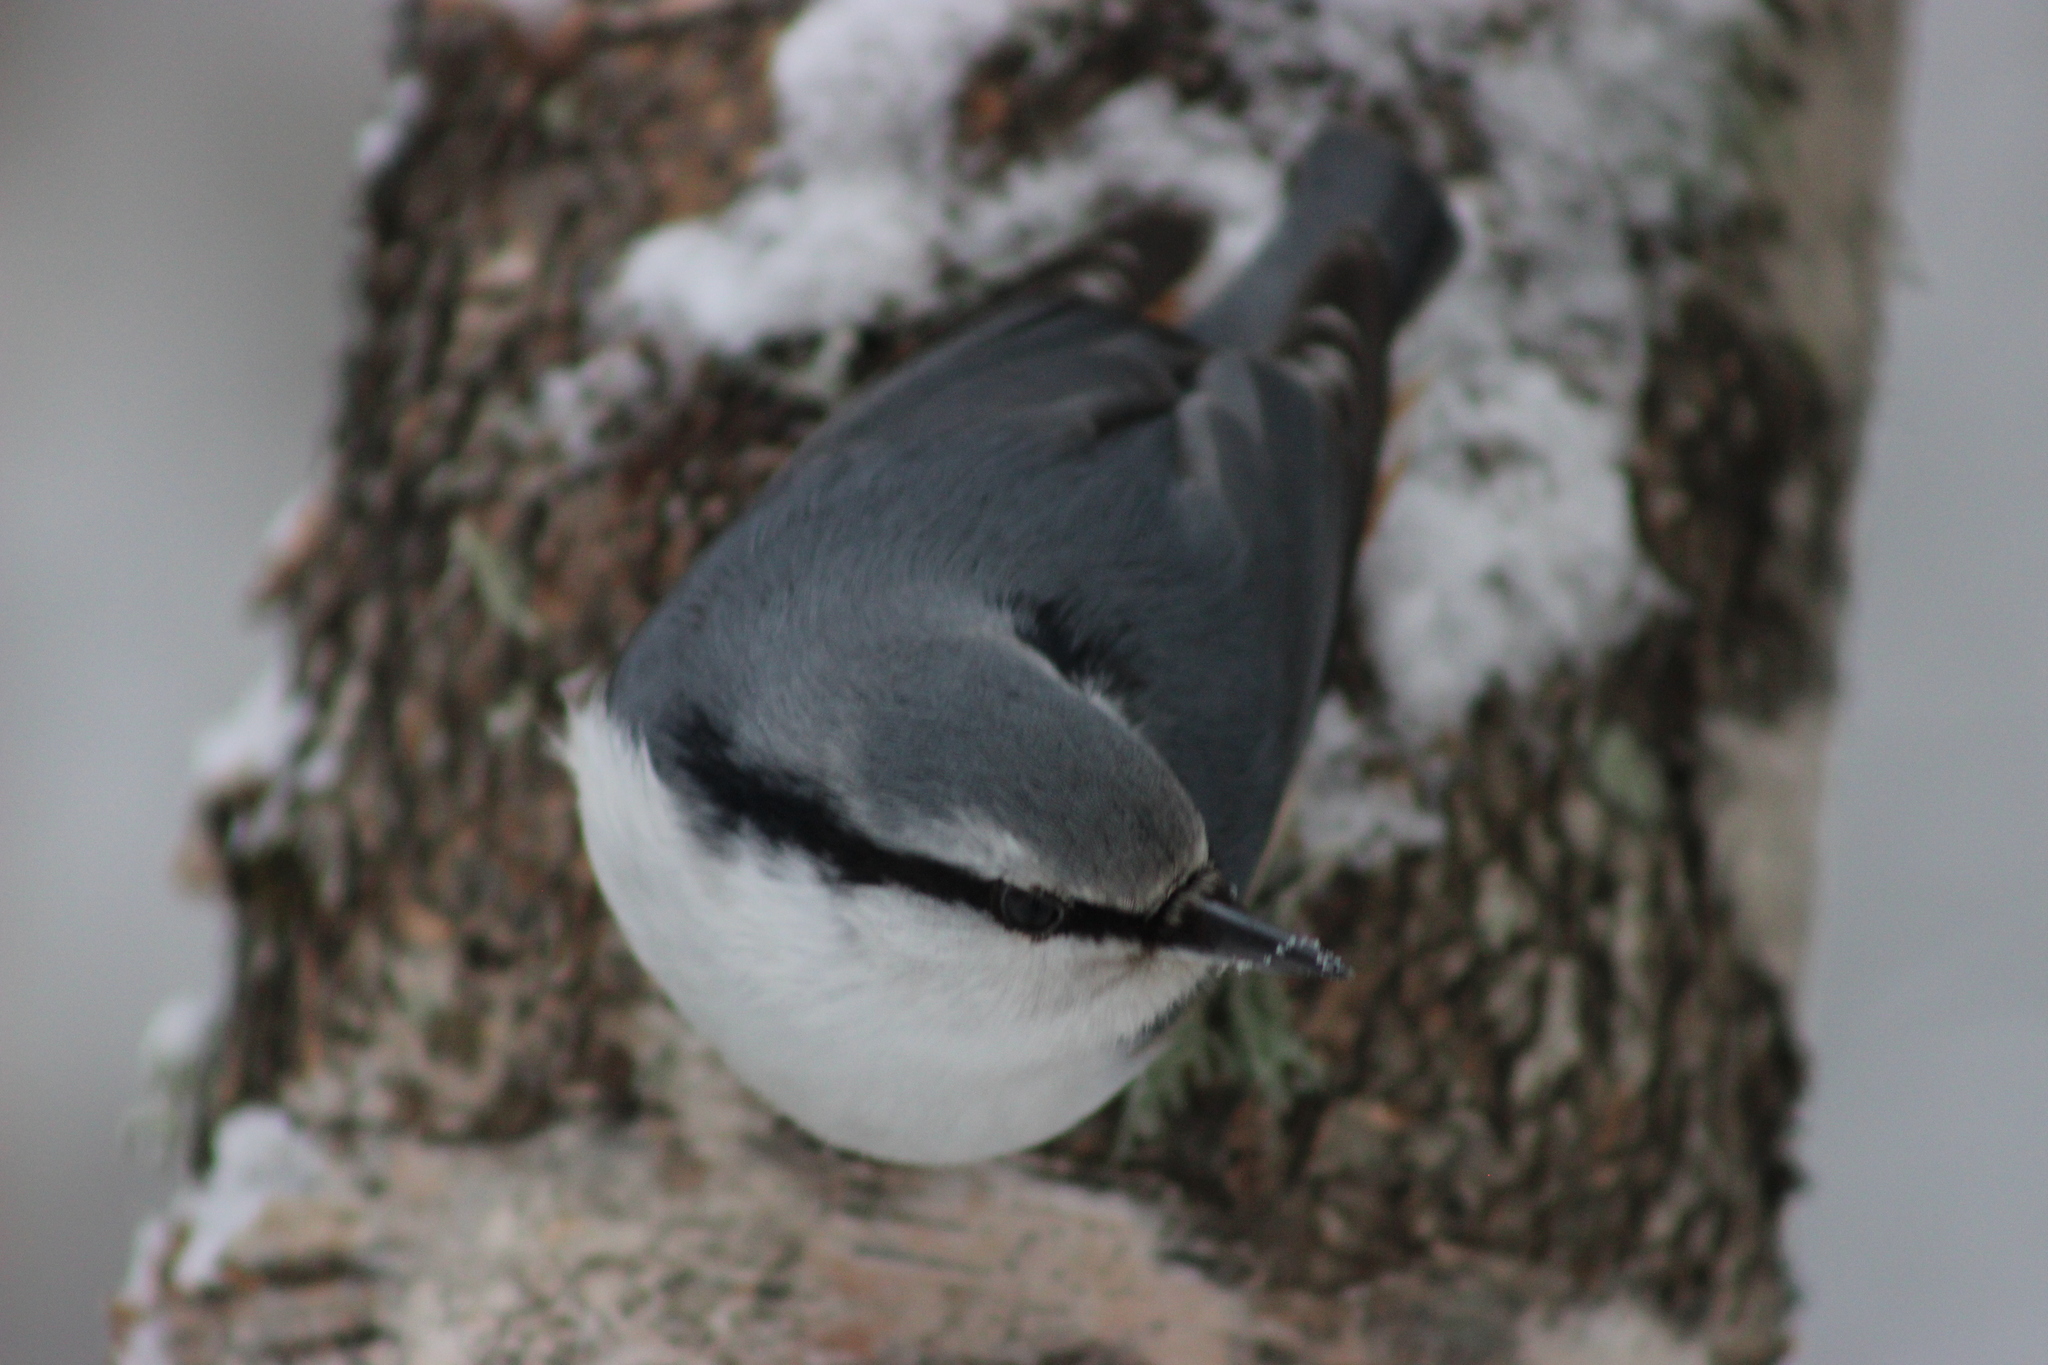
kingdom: Animalia
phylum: Chordata
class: Aves
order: Passeriformes
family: Sittidae
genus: Sitta
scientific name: Sitta europaea
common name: Eurasian nuthatch
